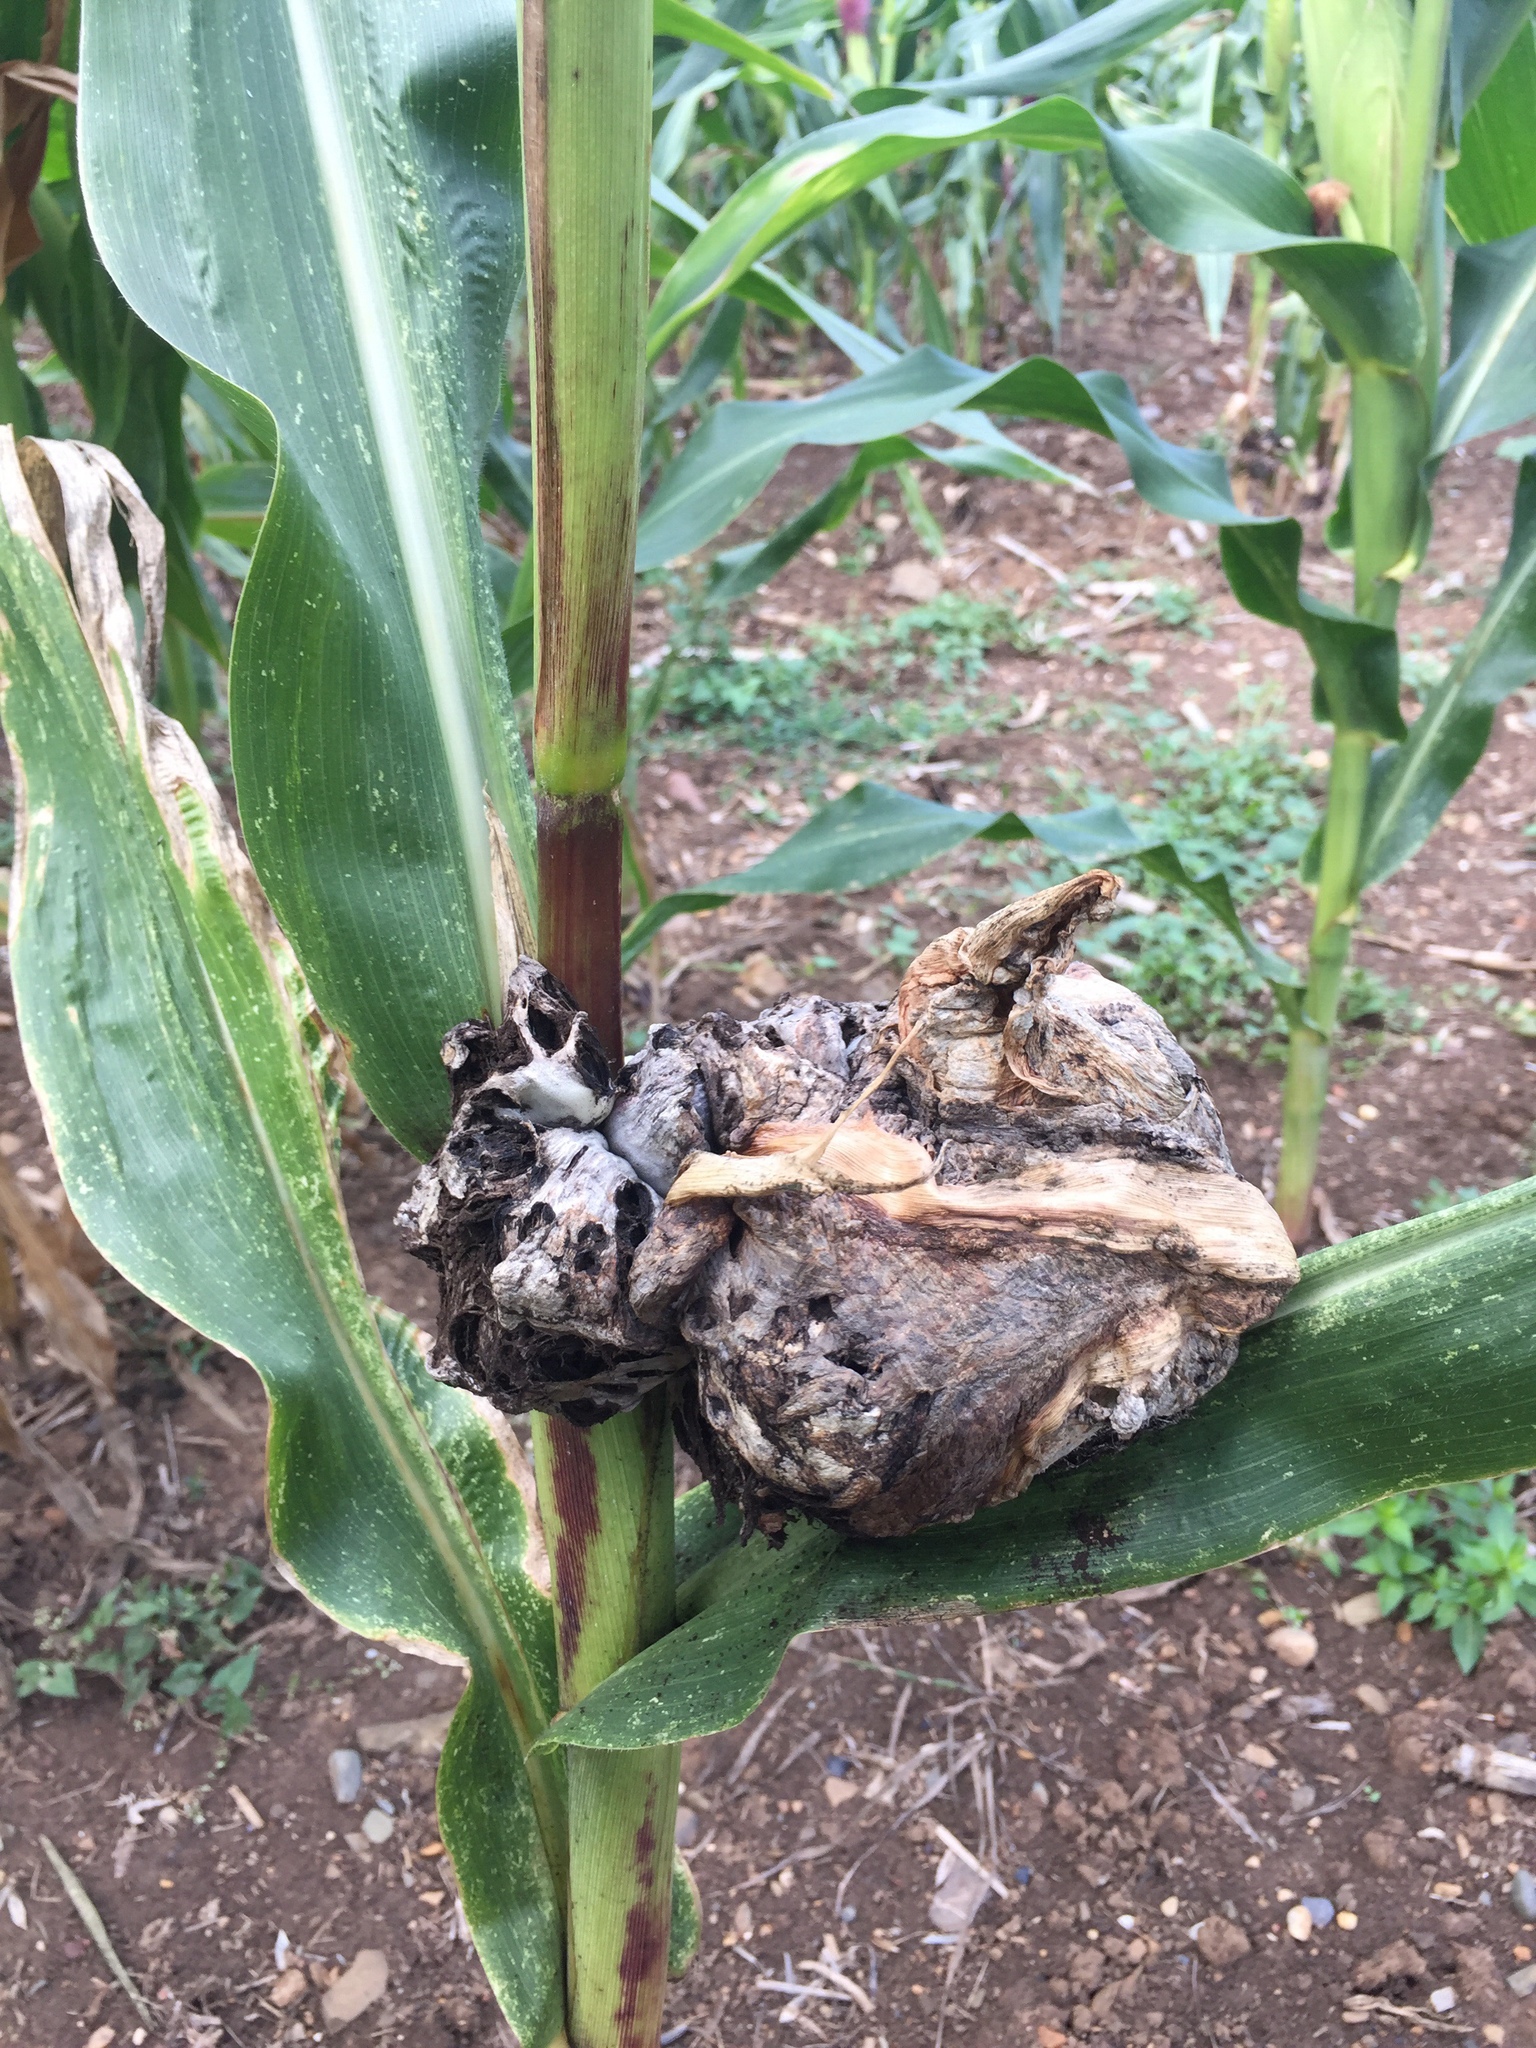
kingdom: Fungi
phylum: Basidiomycota
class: Ustilaginomycetes
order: Ustilaginales
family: Ustilaginaceae
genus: Mycosarcoma
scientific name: Mycosarcoma maydis
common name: Corn smut
